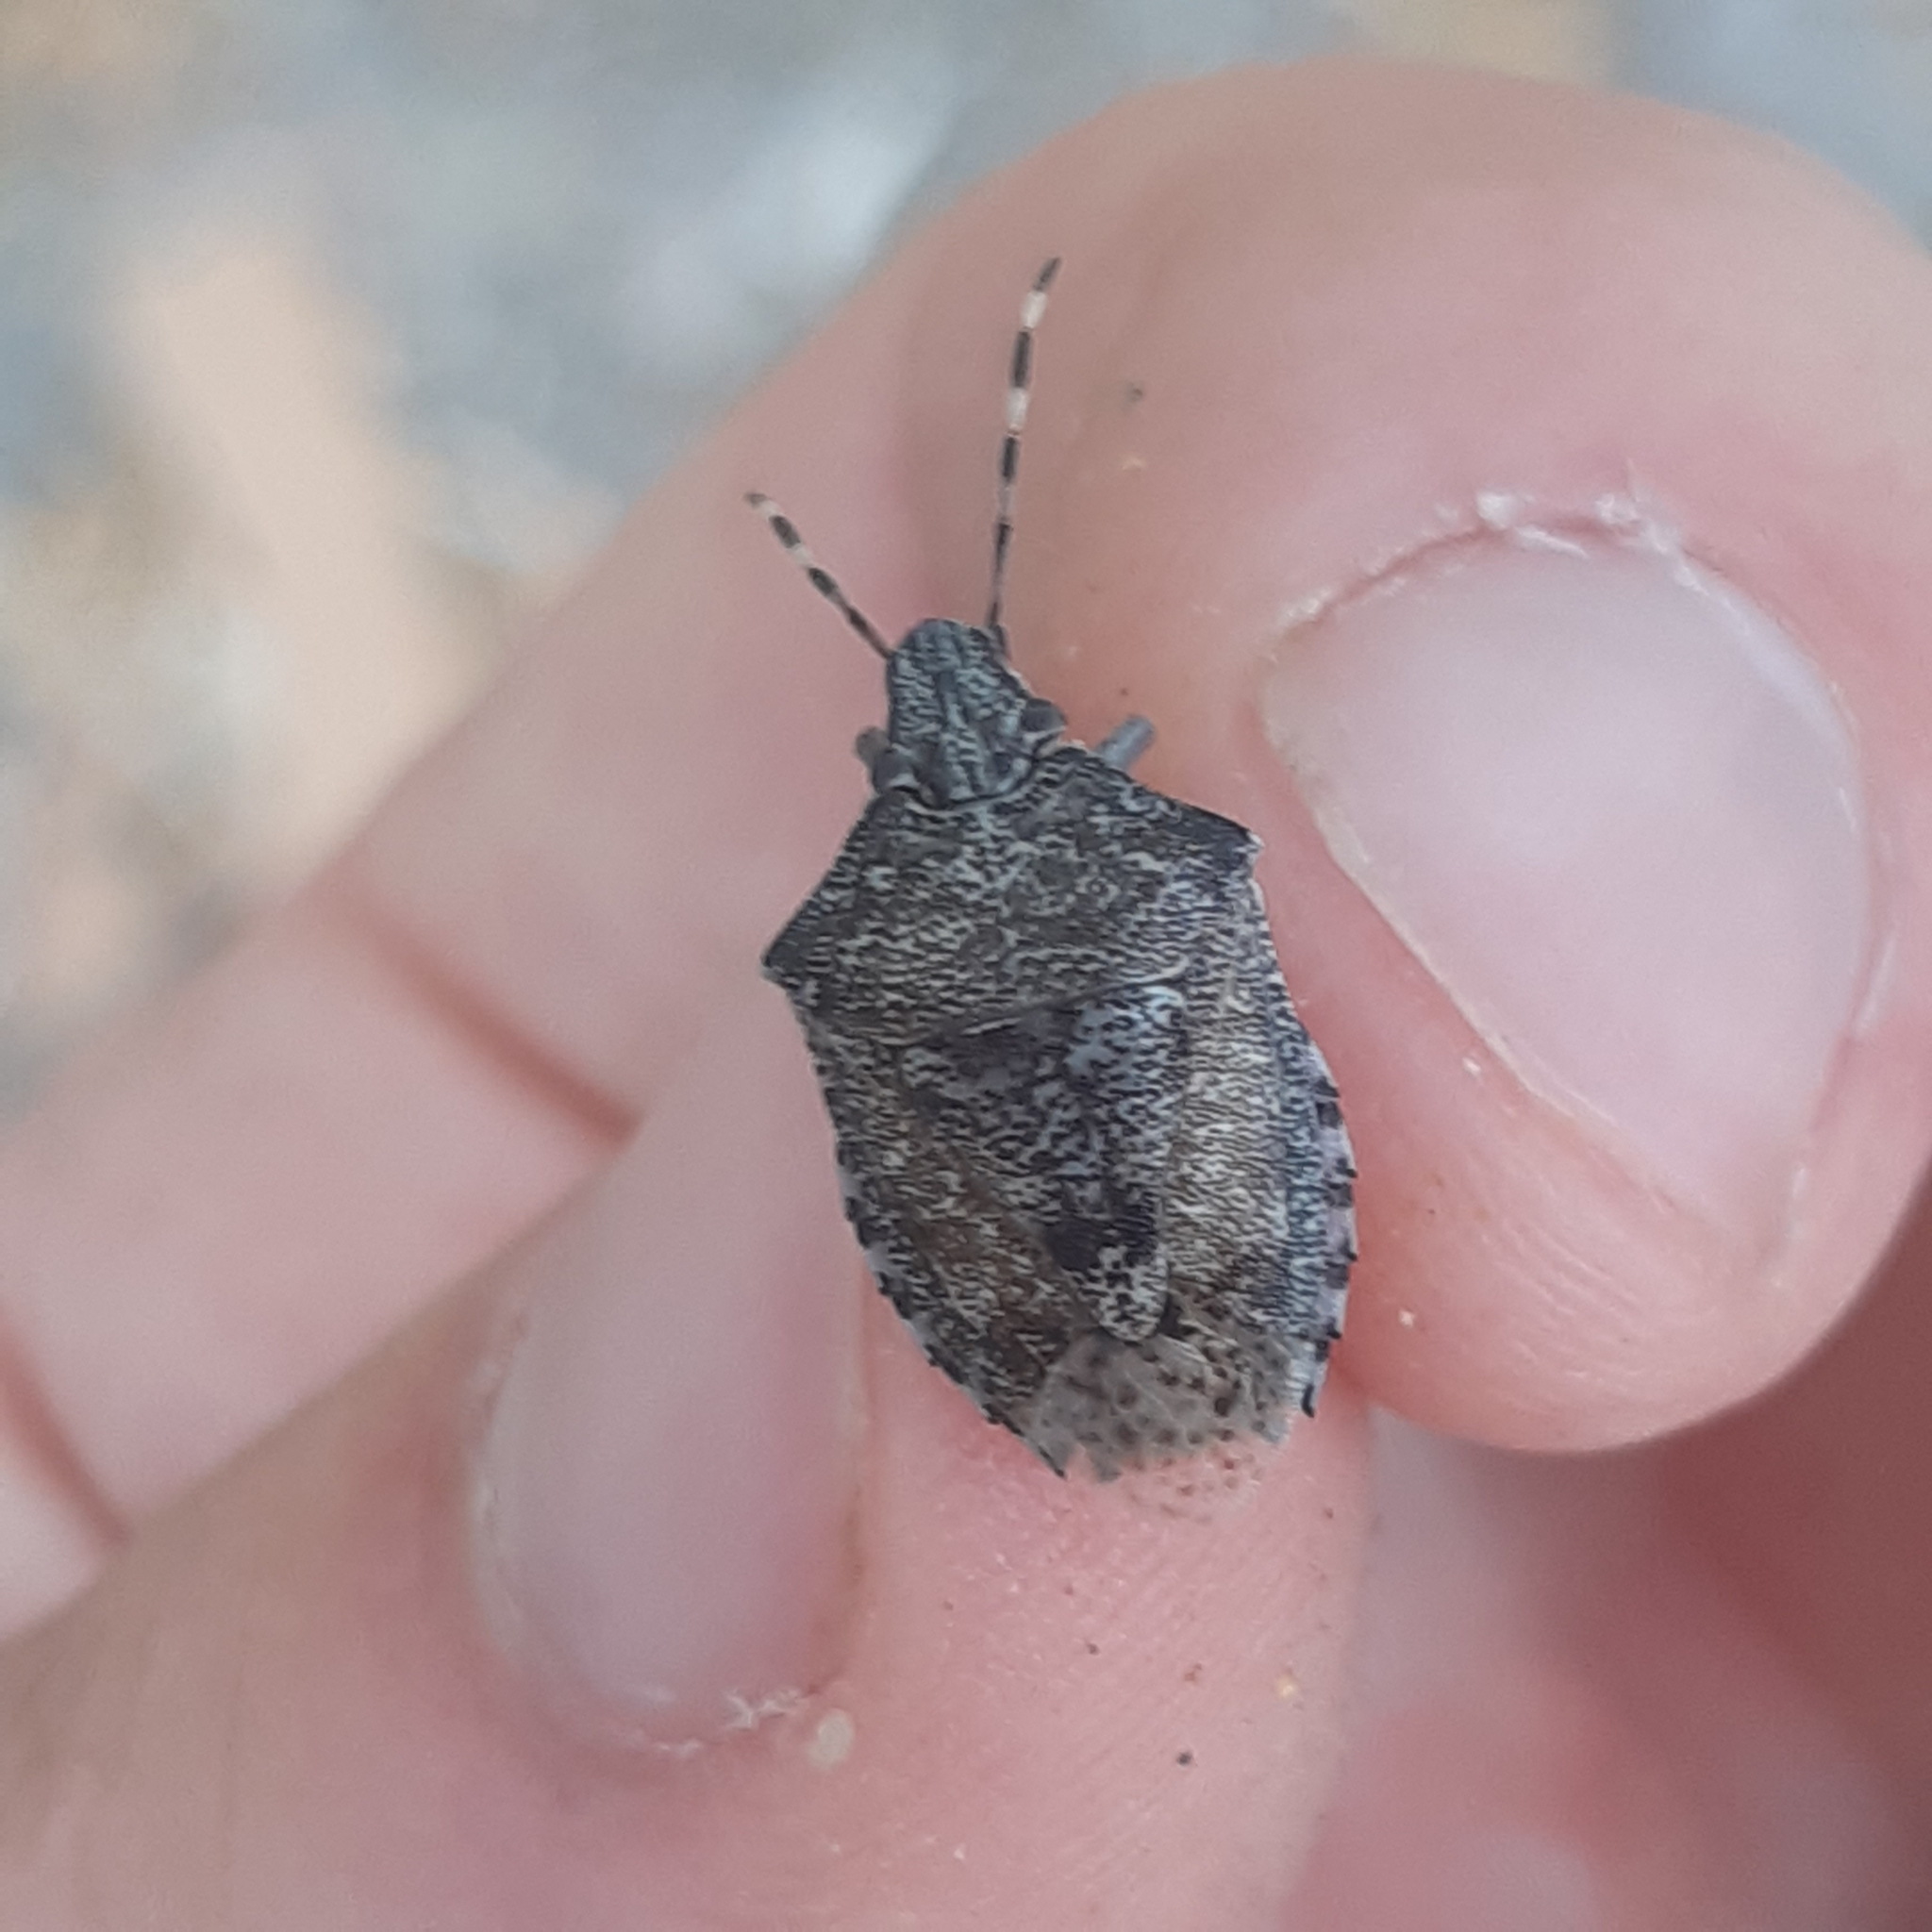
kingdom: Animalia
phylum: Arthropoda
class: Insecta
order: Hemiptera
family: Pentatomidae
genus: Rhaphigaster
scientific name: Rhaphigaster nebulosa
